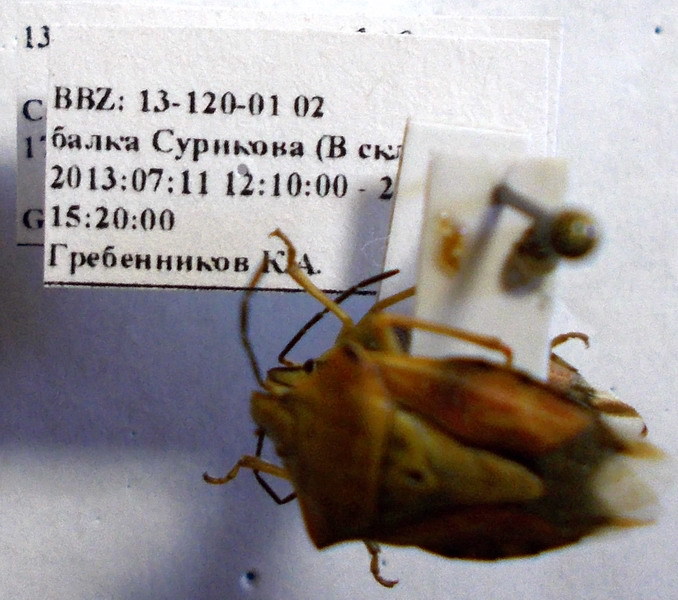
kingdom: Animalia
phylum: Arthropoda
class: Insecta
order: Hemiptera
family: Pentatomidae
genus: Carpocoris
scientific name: Carpocoris coreanus
